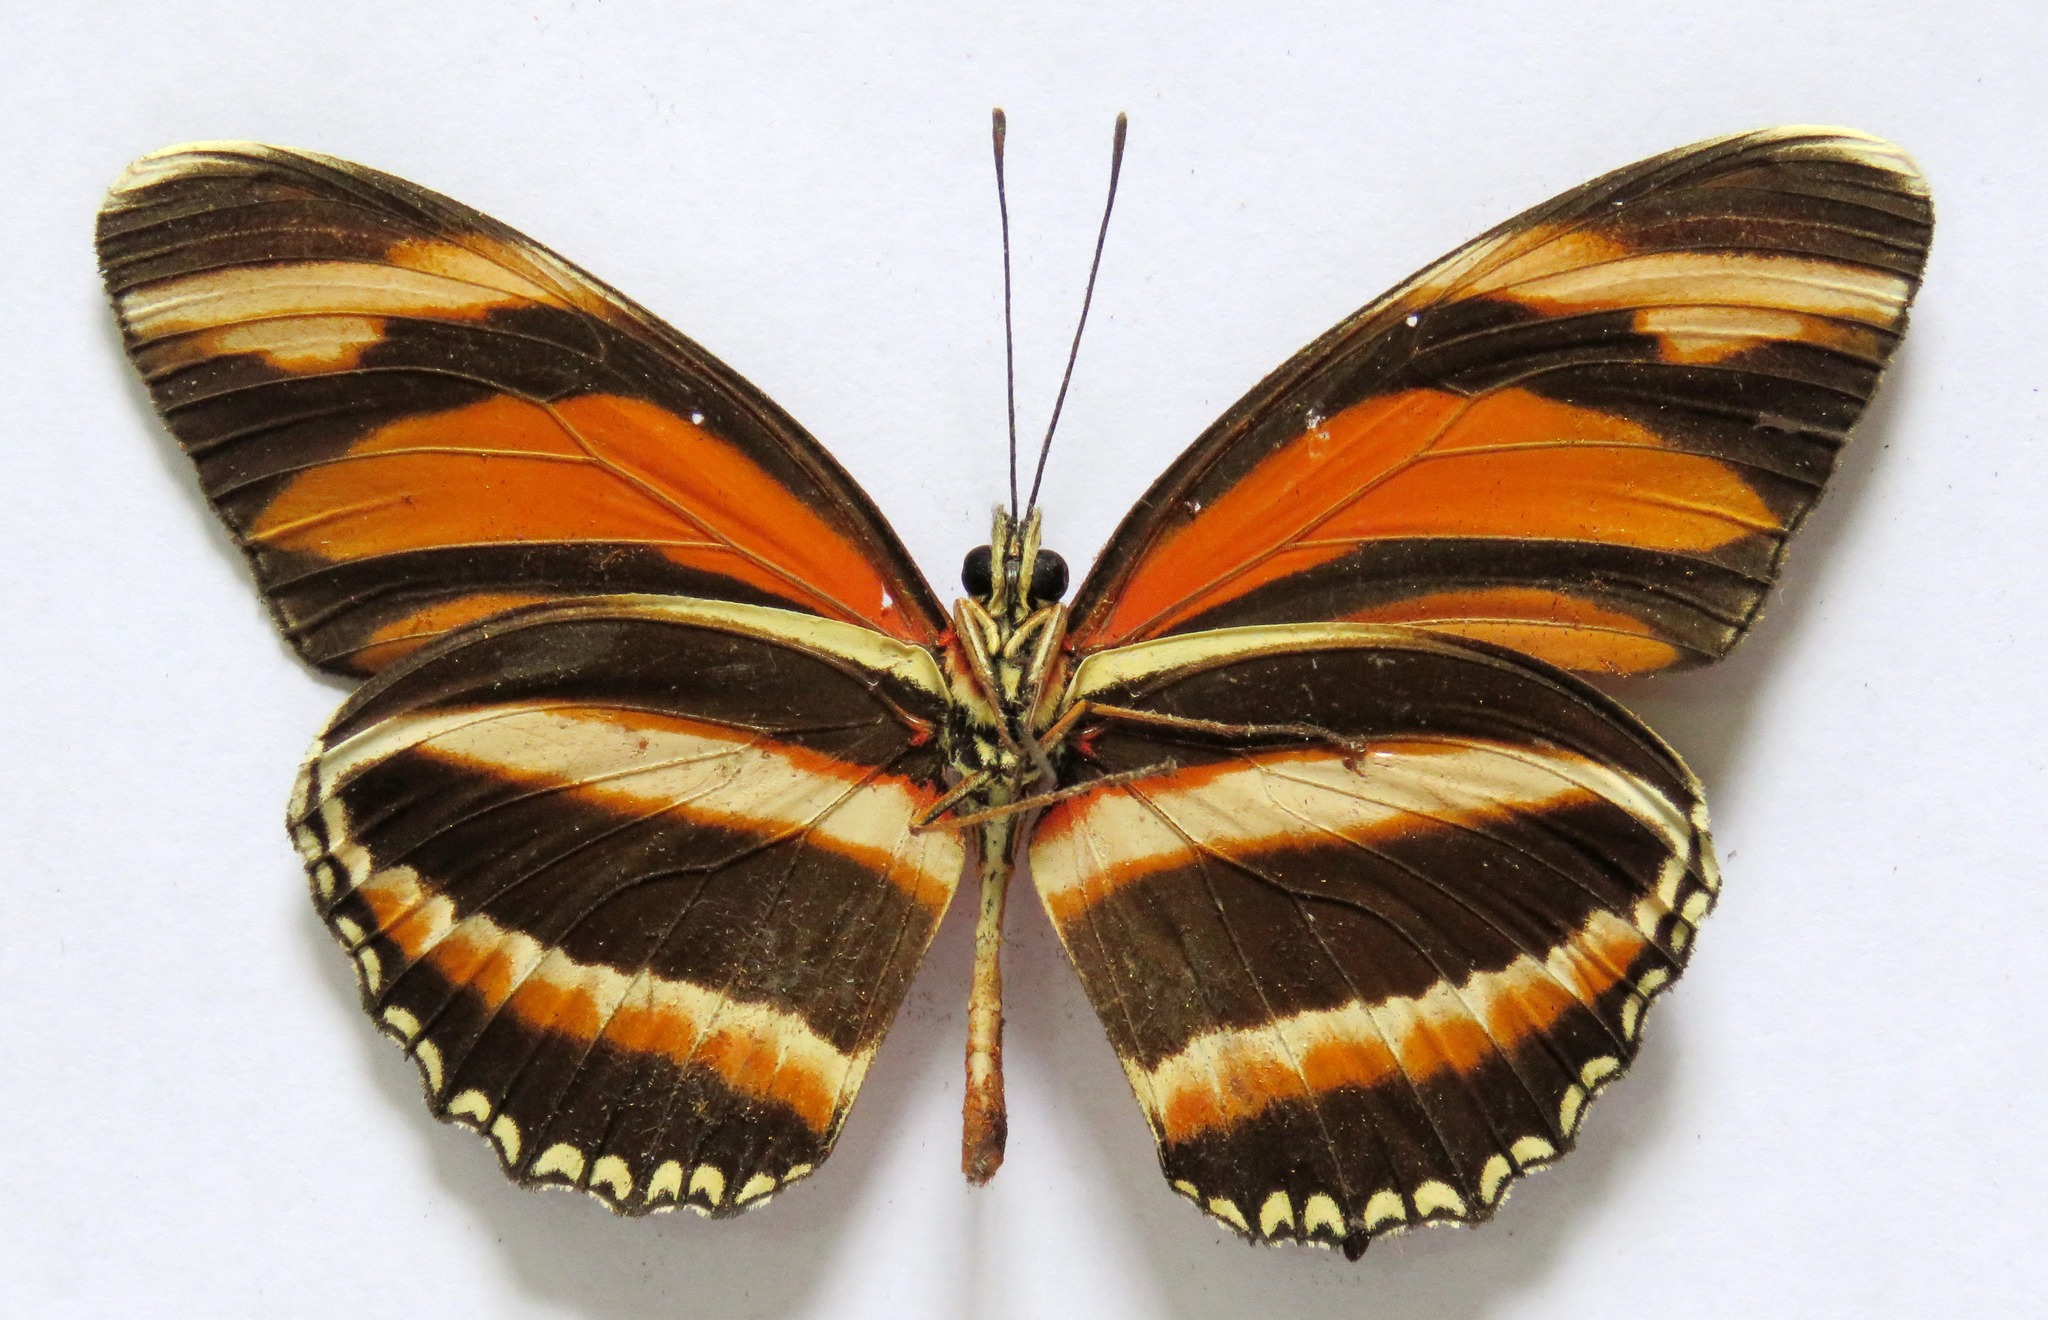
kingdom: Animalia
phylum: Arthropoda
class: Insecta
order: Lepidoptera
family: Nymphalidae
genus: Dryadula
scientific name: Dryadula phaetusa
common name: Banded orange heliconian
